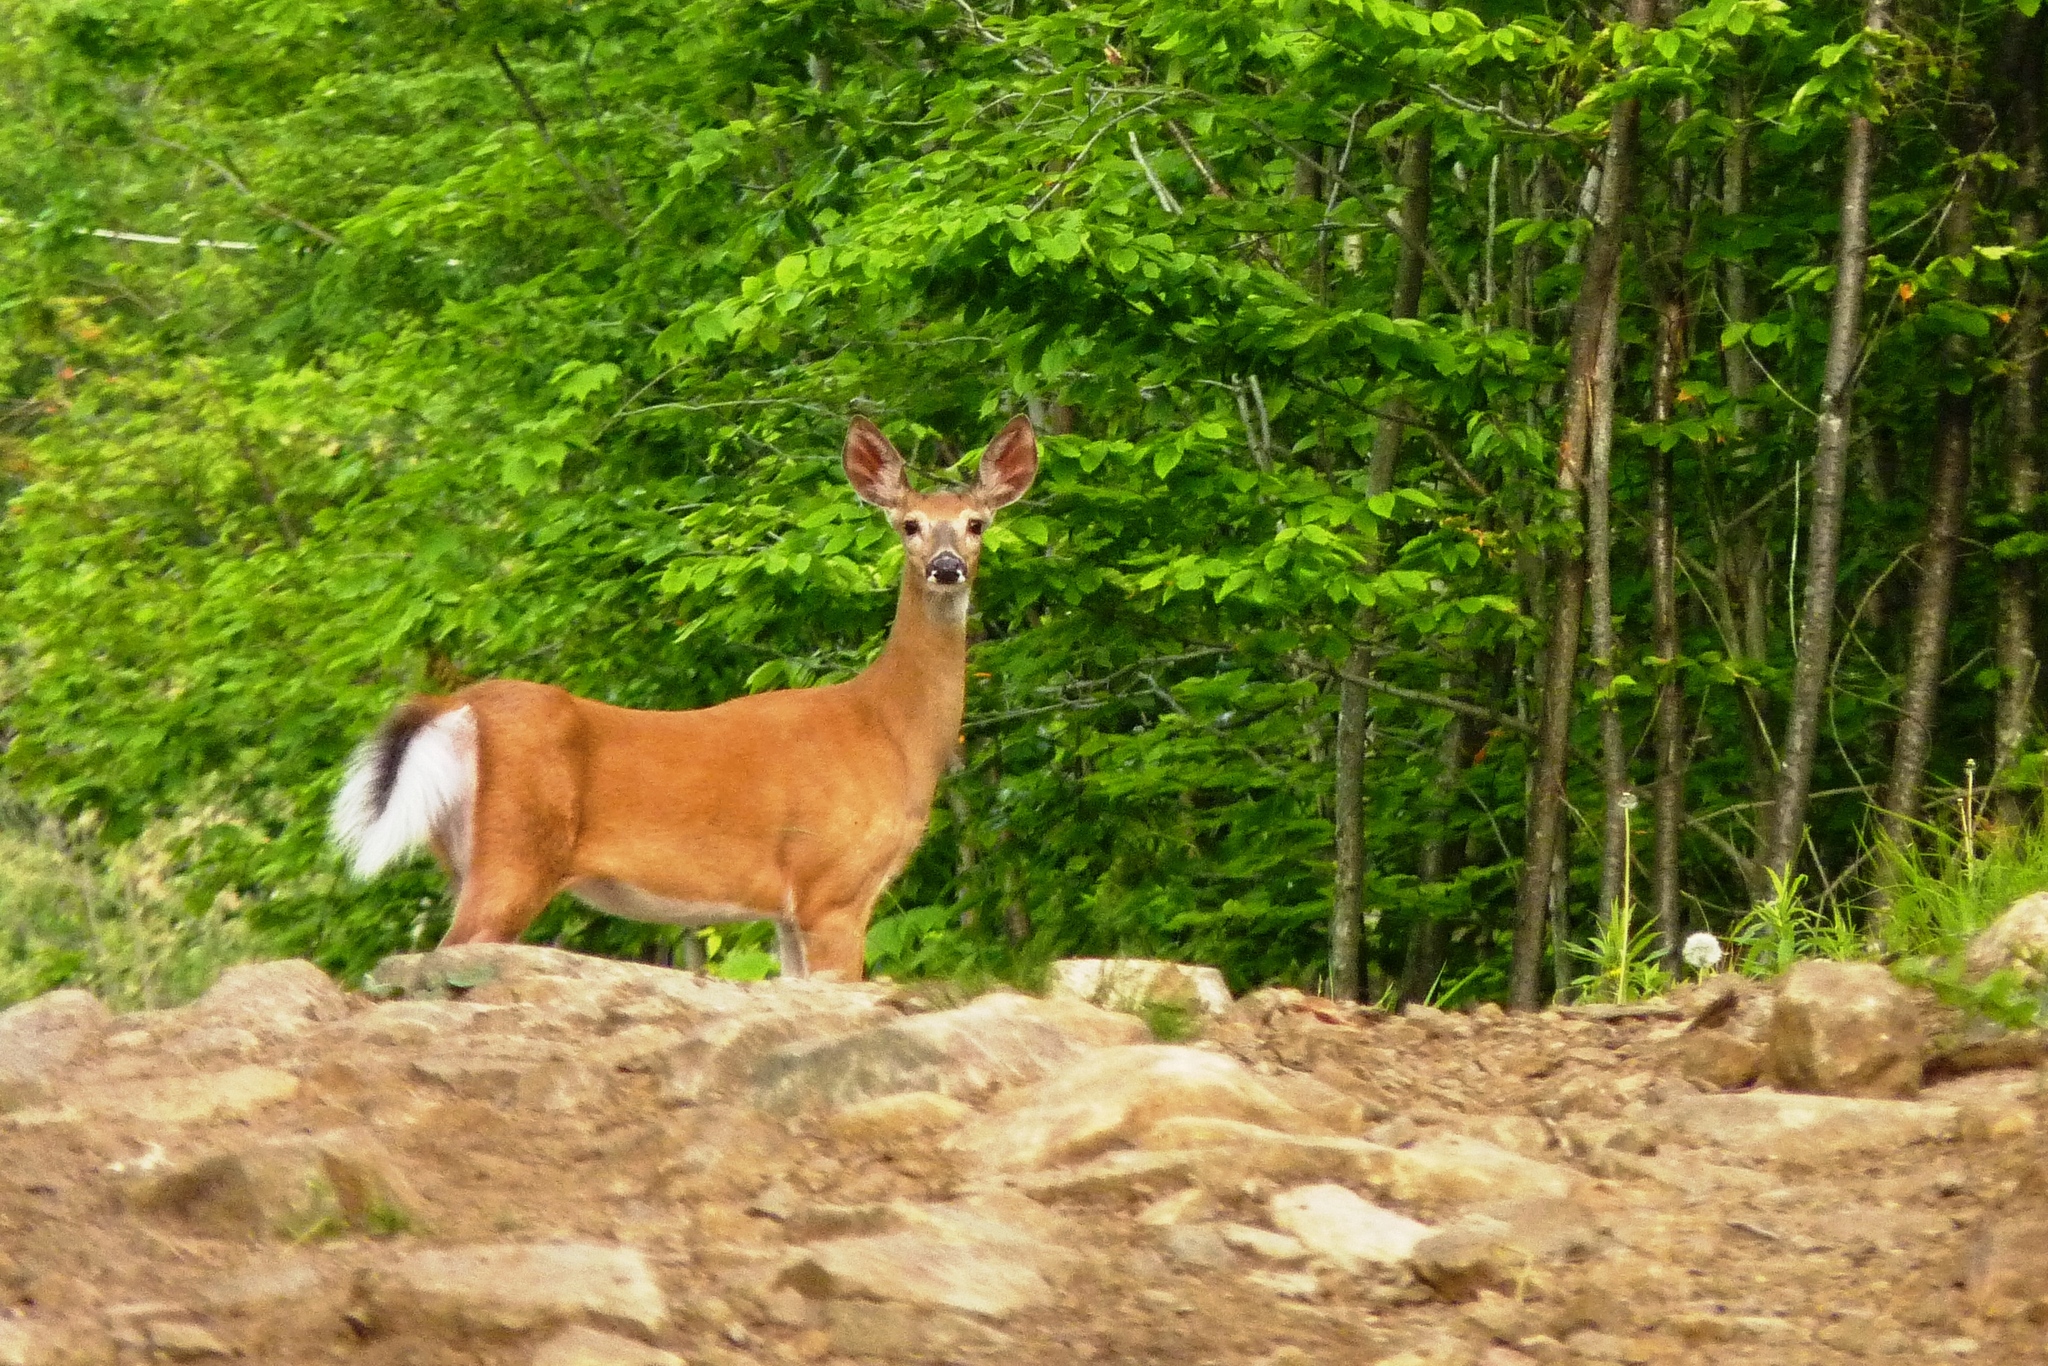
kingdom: Animalia
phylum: Chordata
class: Mammalia
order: Artiodactyla
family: Cervidae
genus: Odocoileus
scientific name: Odocoileus virginianus
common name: White-tailed deer
